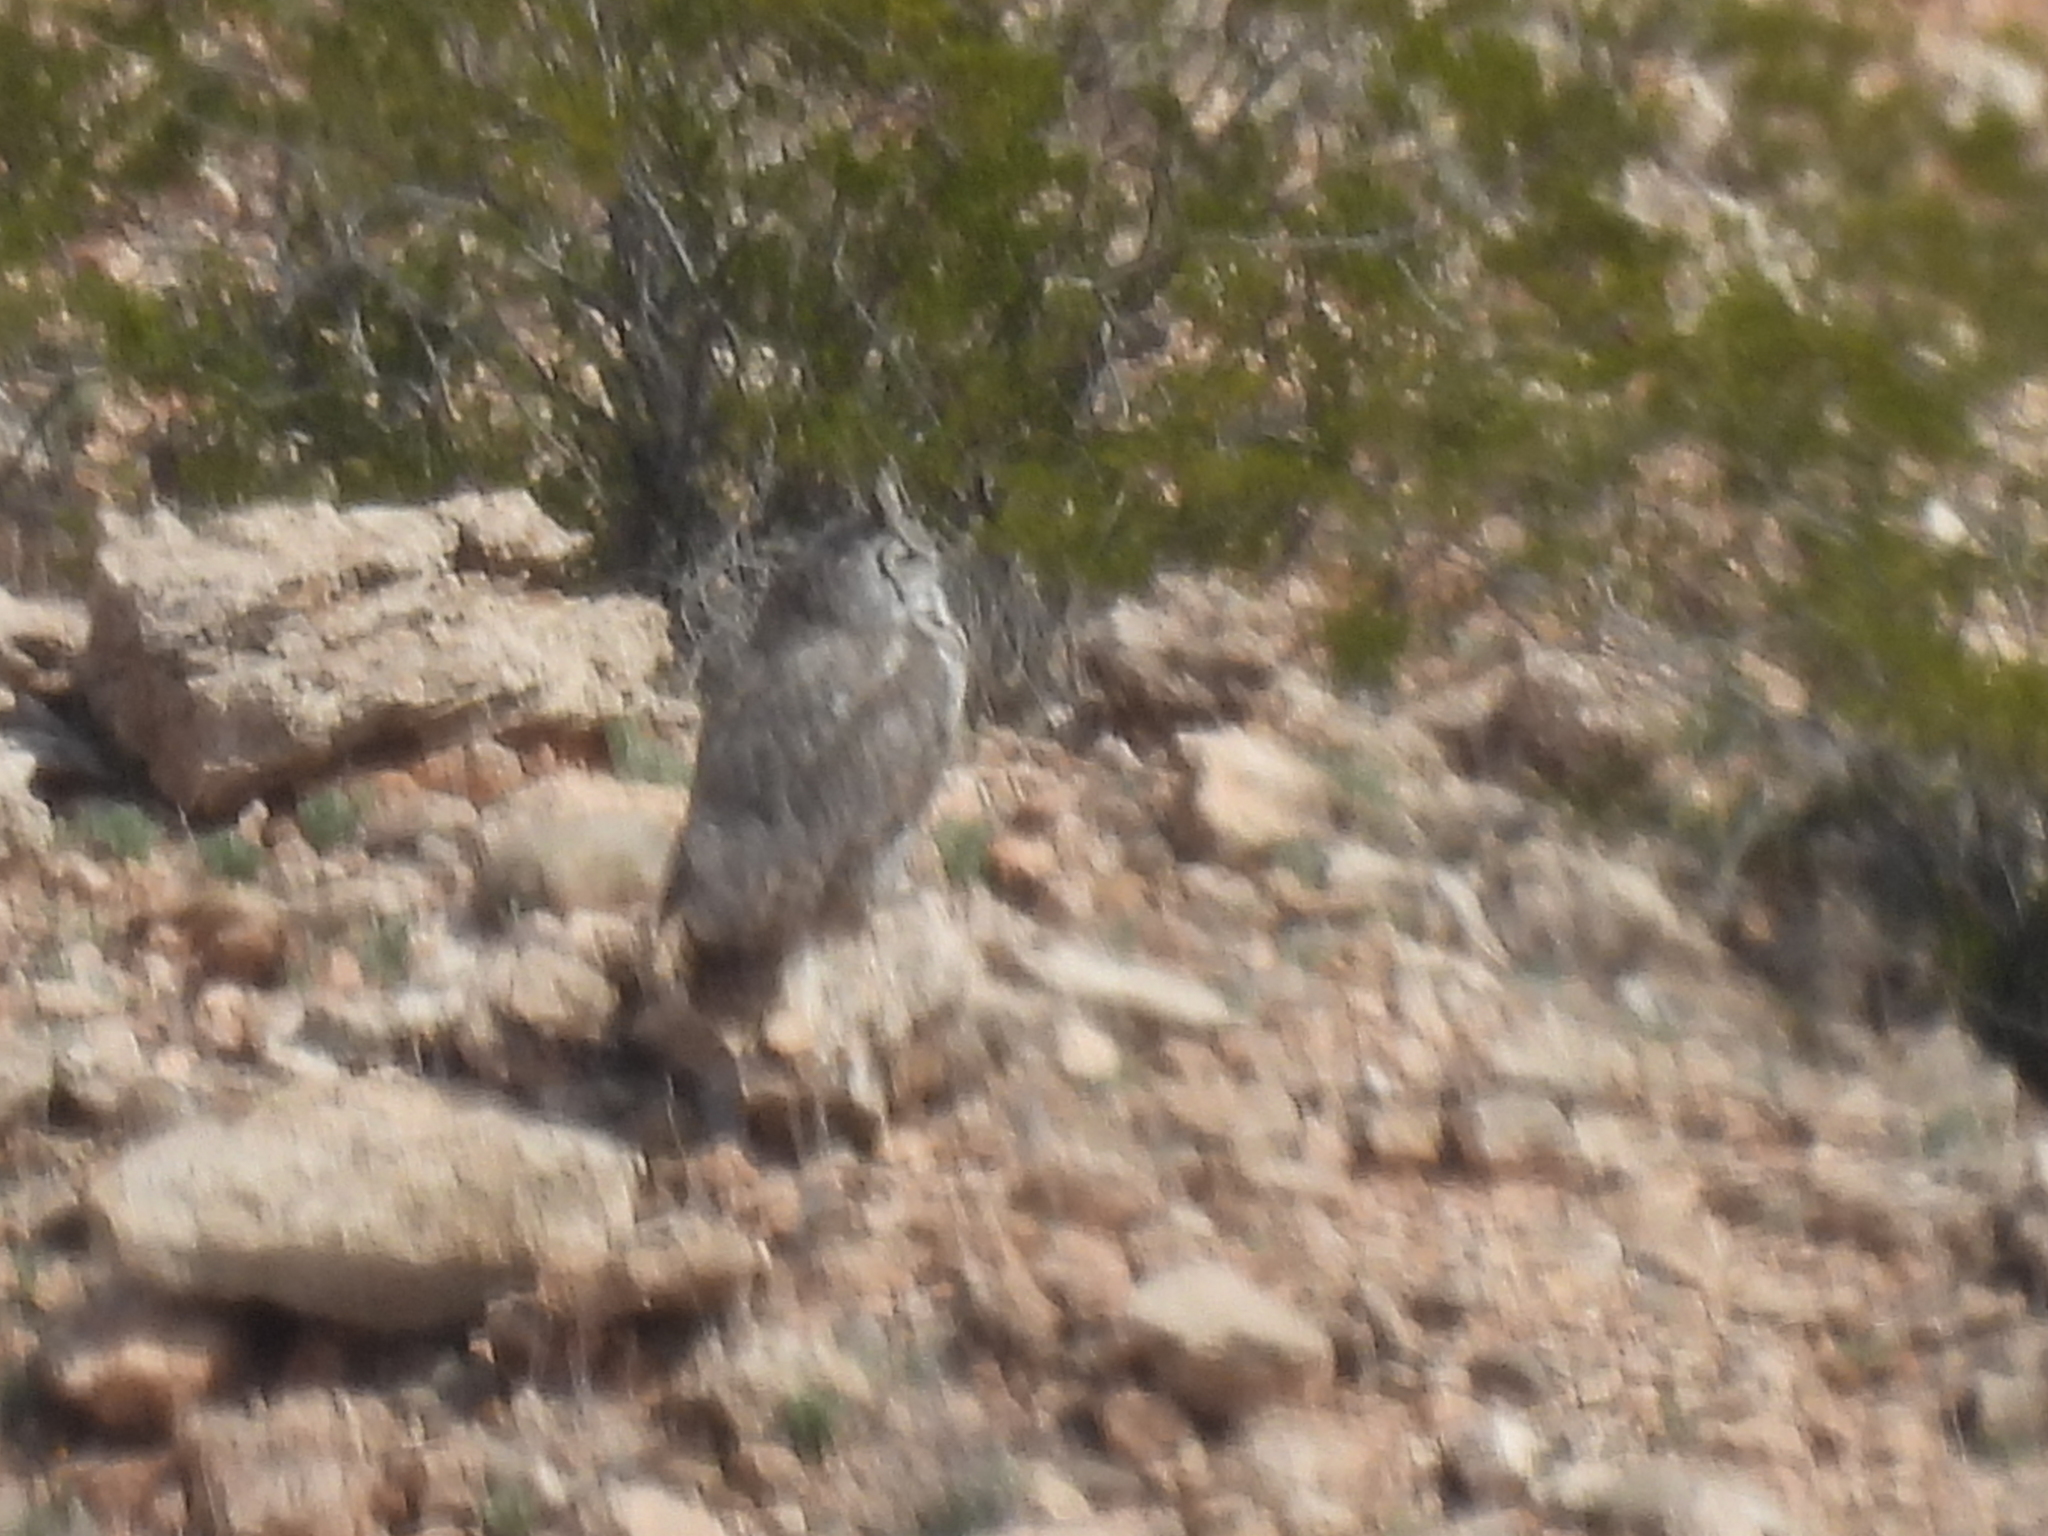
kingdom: Animalia
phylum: Chordata
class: Aves
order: Strigiformes
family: Strigidae
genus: Bubo
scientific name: Bubo virginianus
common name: Great horned owl
